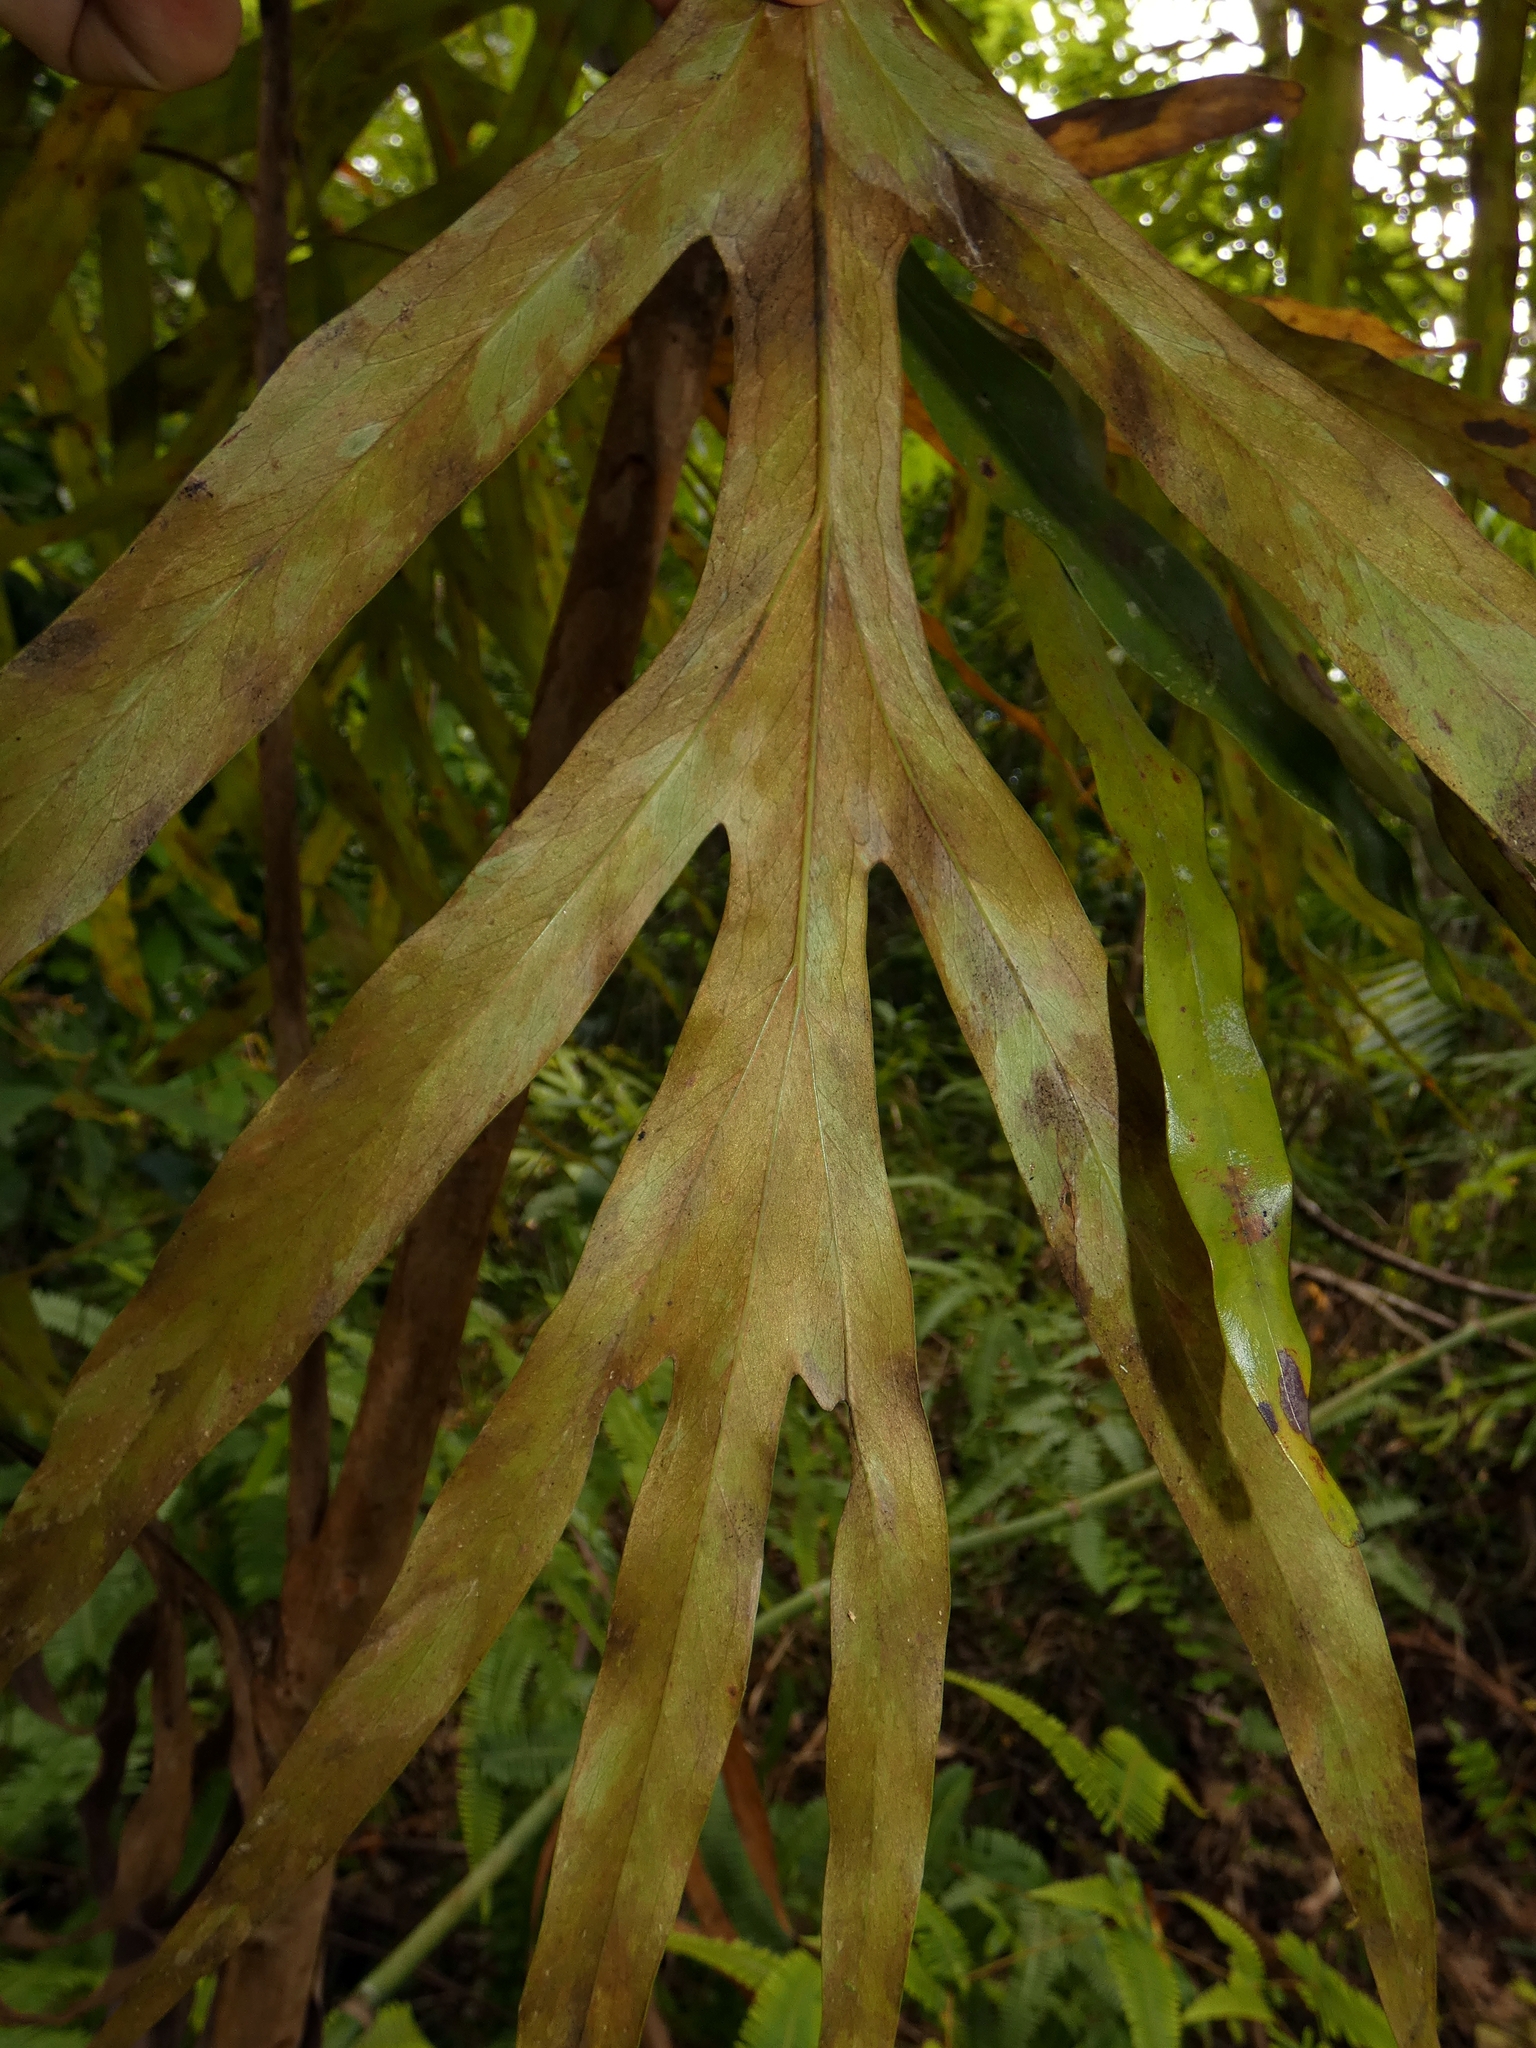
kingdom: Plantae
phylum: Tracheophyta
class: Magnoliopsida
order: Proteales
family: Proteaceae
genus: Grevillea
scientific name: Grevillea baileyana
